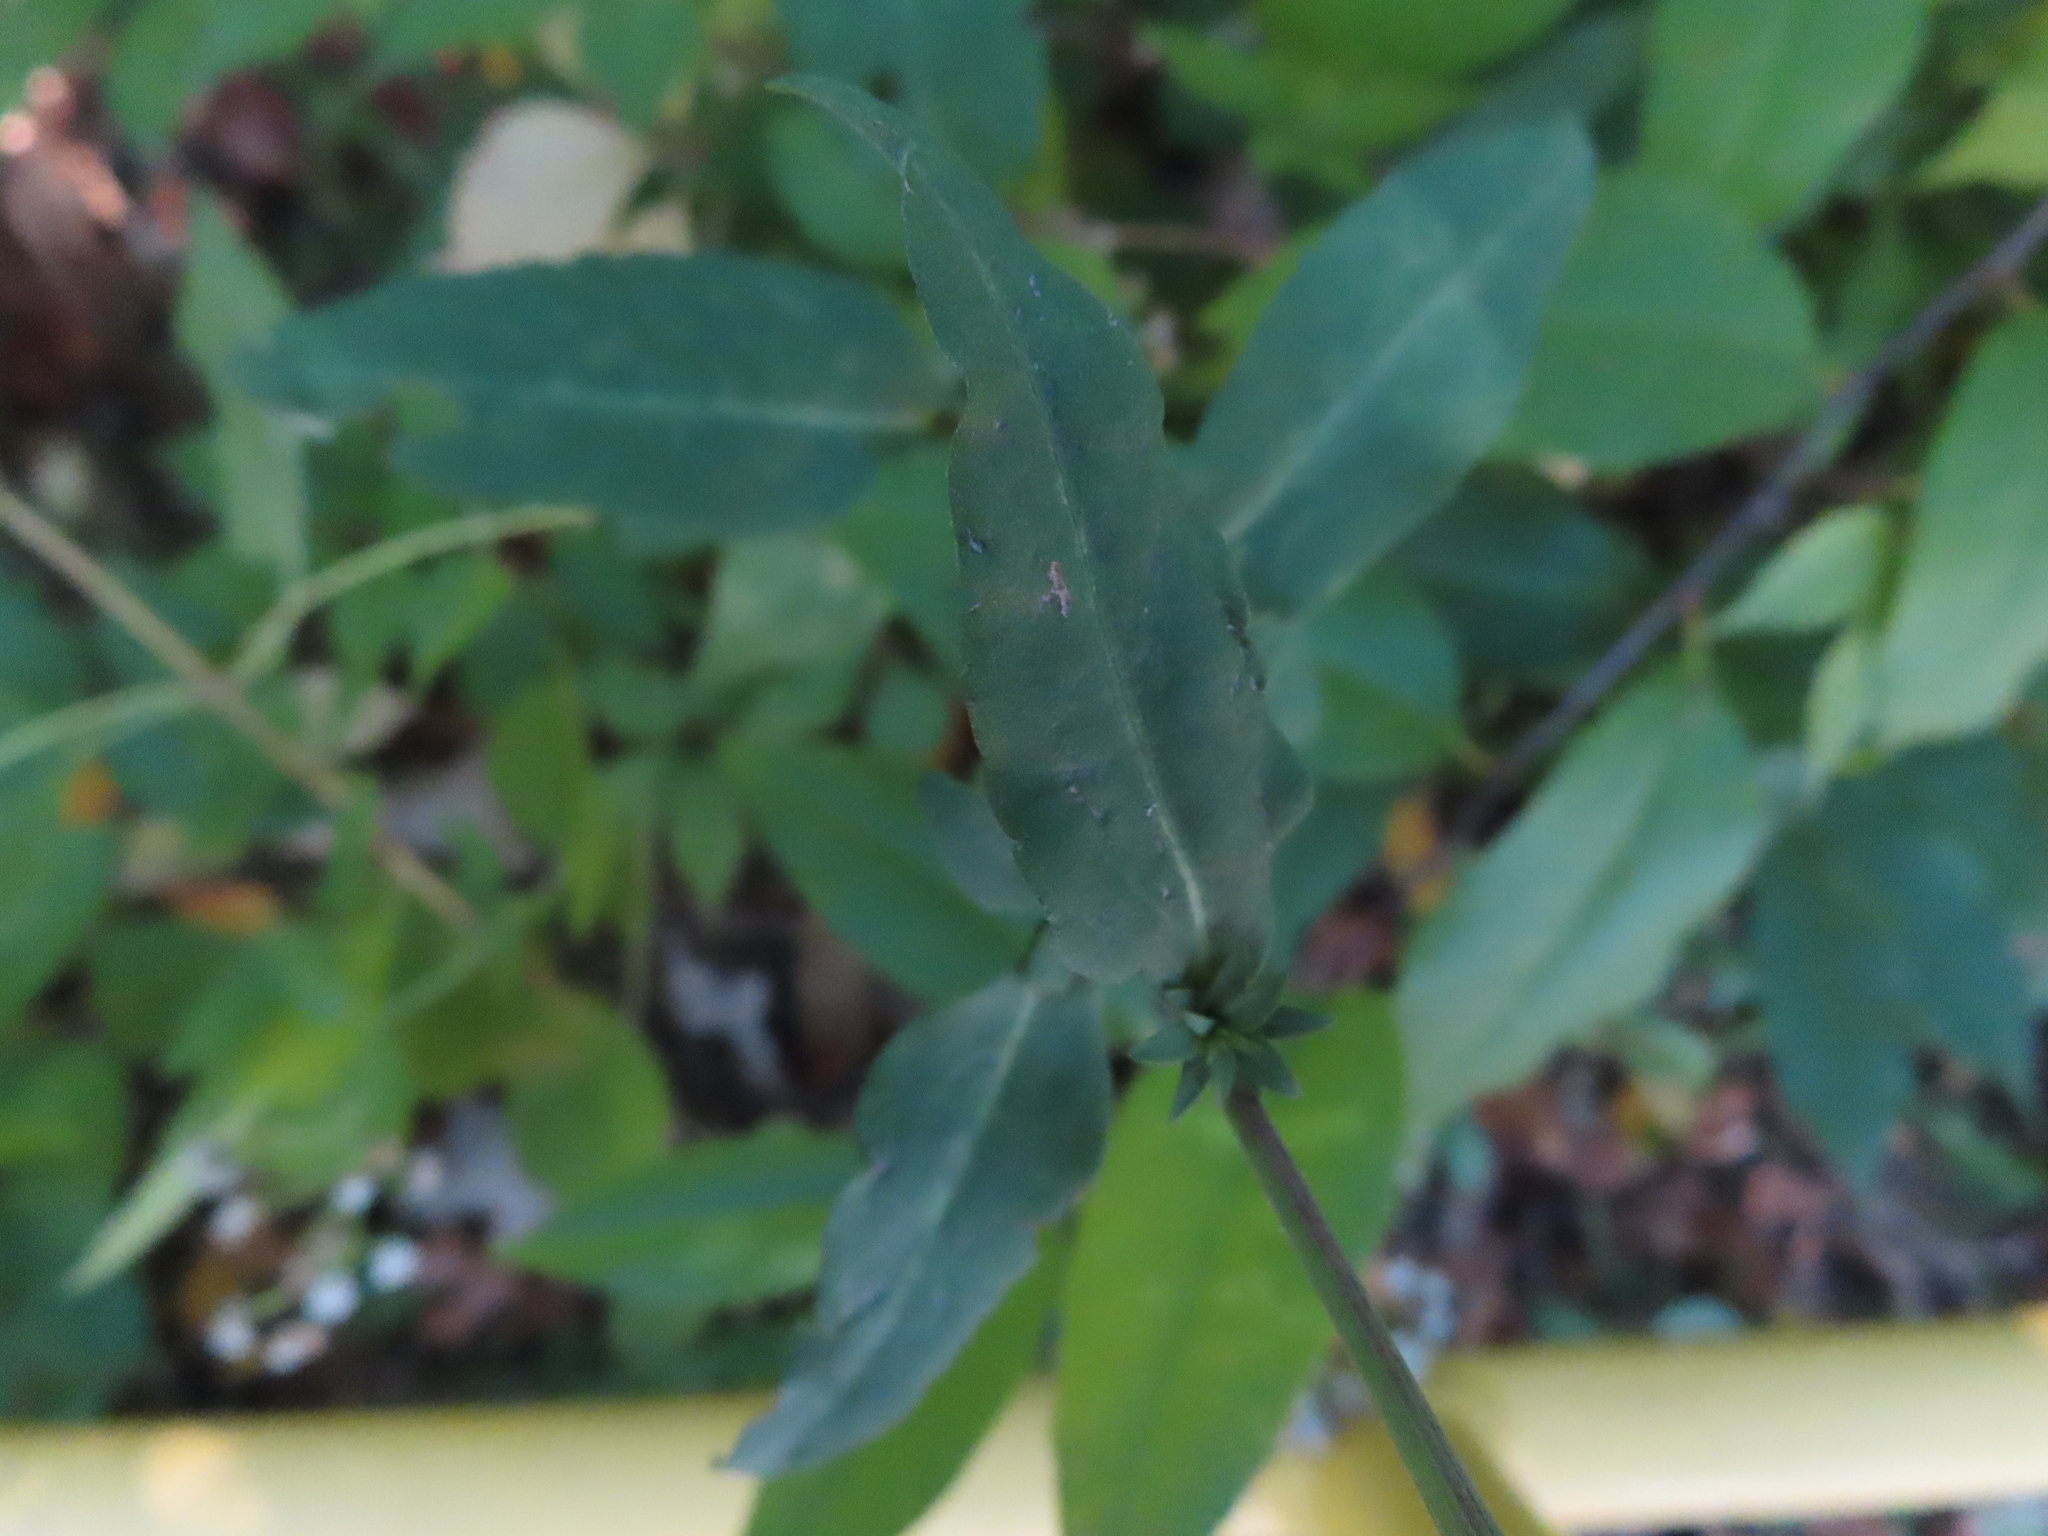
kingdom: Plantae
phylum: Tracheophyta
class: Magnoliopsida
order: Asterales
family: Asteraceae
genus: Symphyotrichum
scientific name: Symphyotrichum drummondii
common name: Drummond's aster
